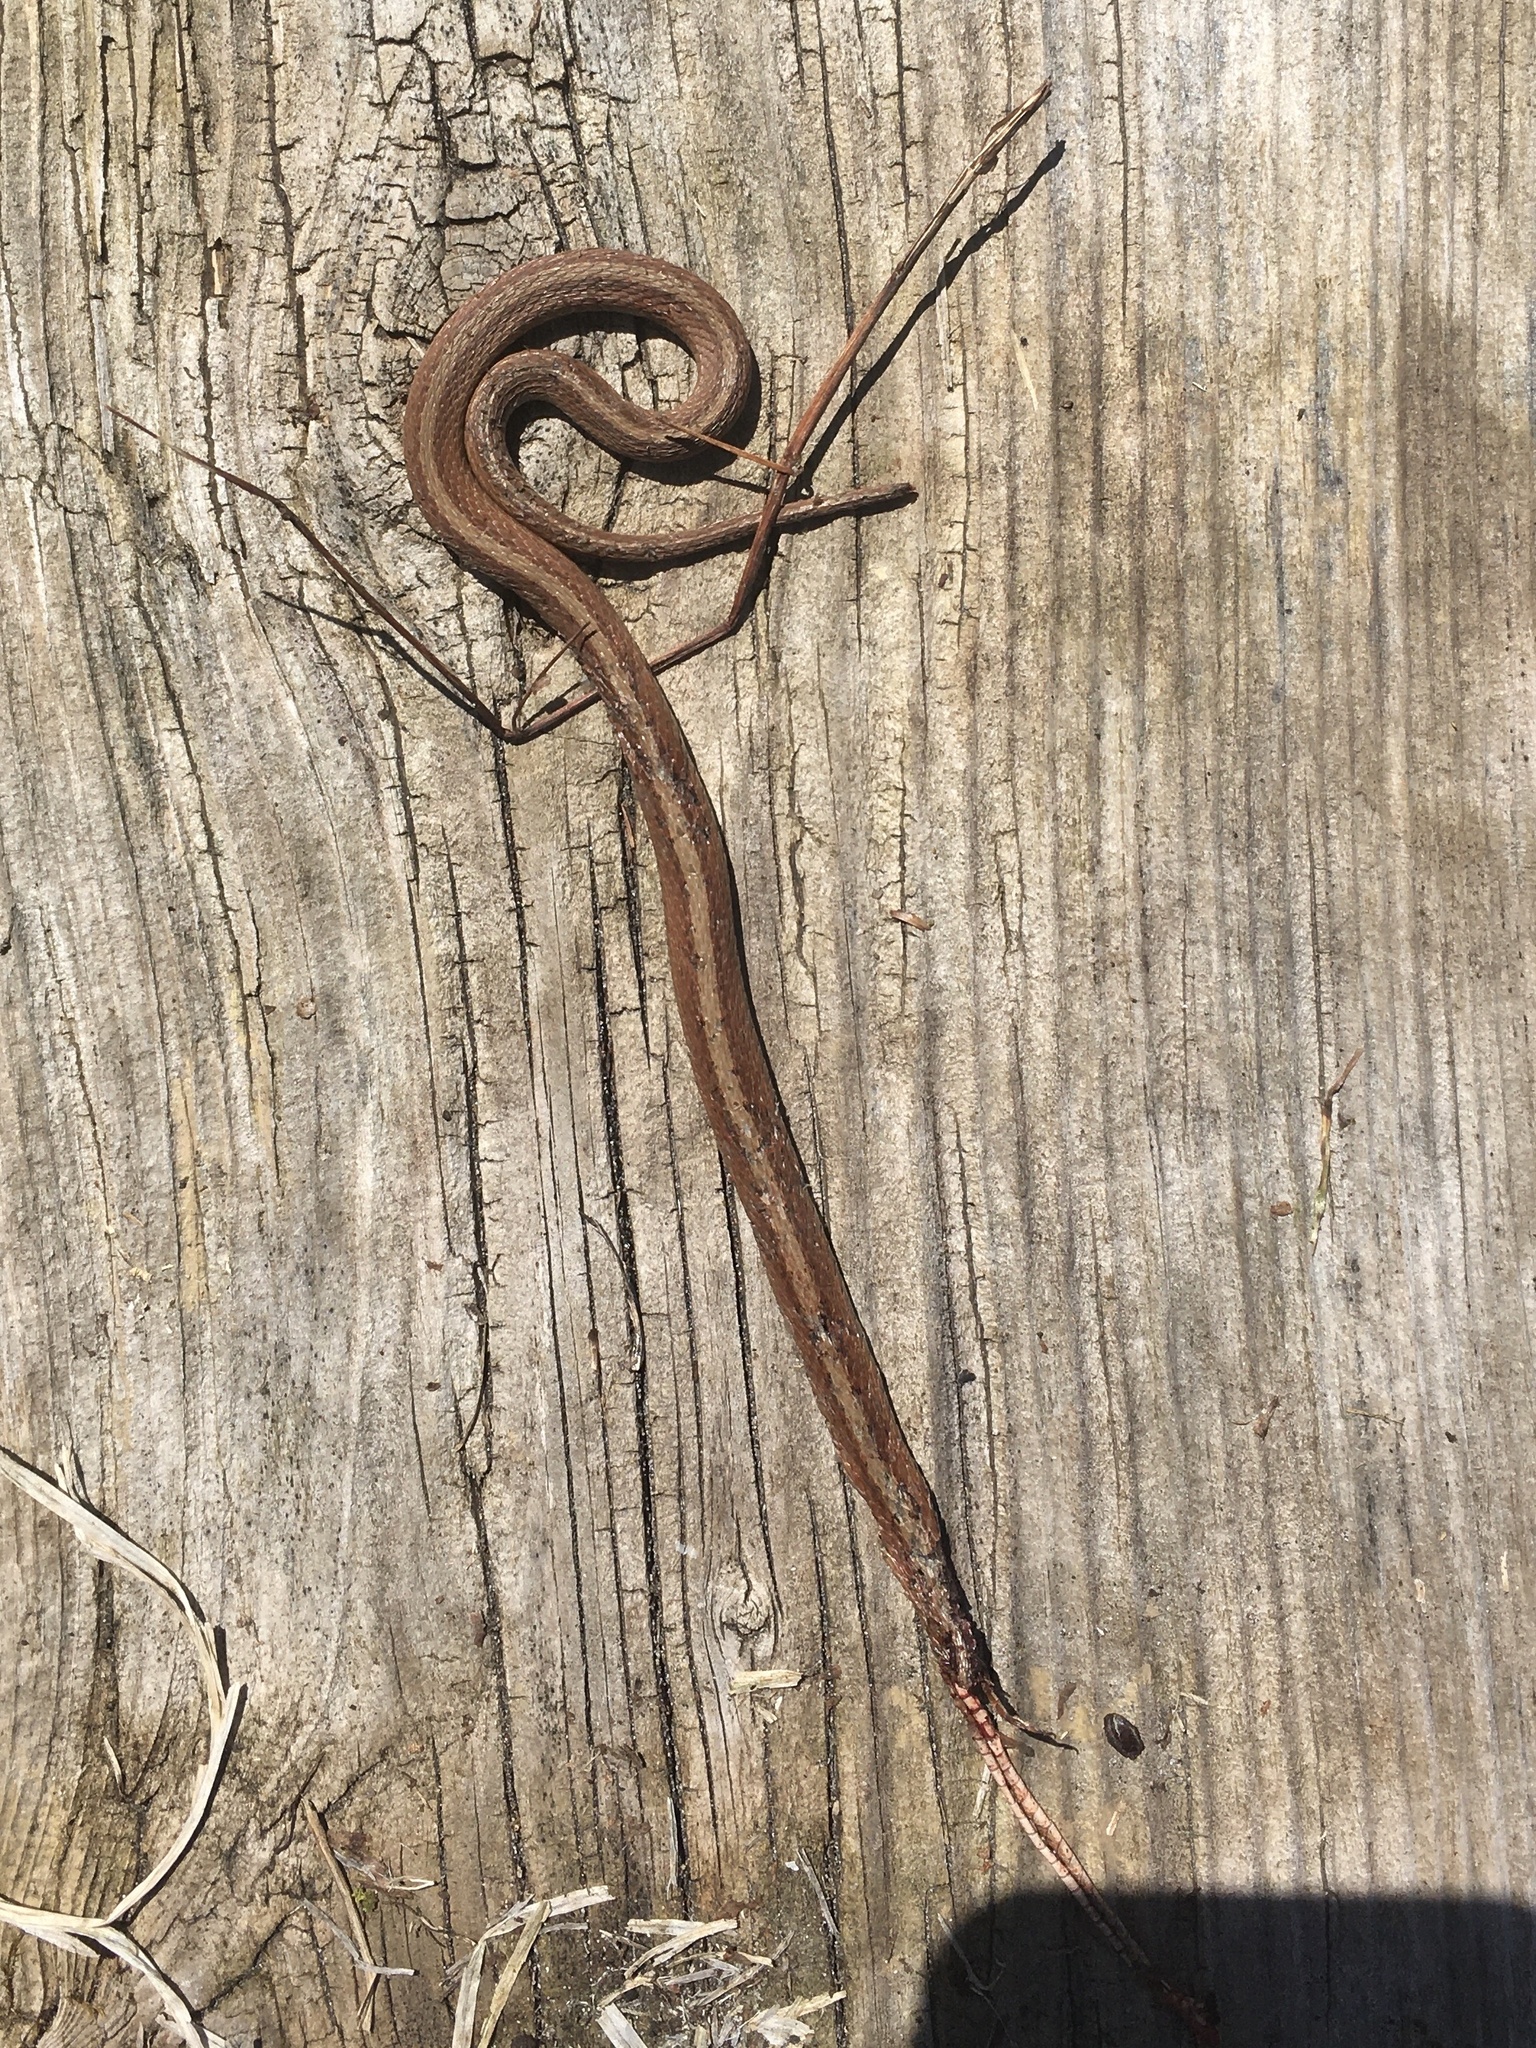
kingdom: Animalia
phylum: Chordata
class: Squamata
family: Colubridae
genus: Storeria
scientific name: Storeria dekayi
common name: (dekay’s) brown snake
